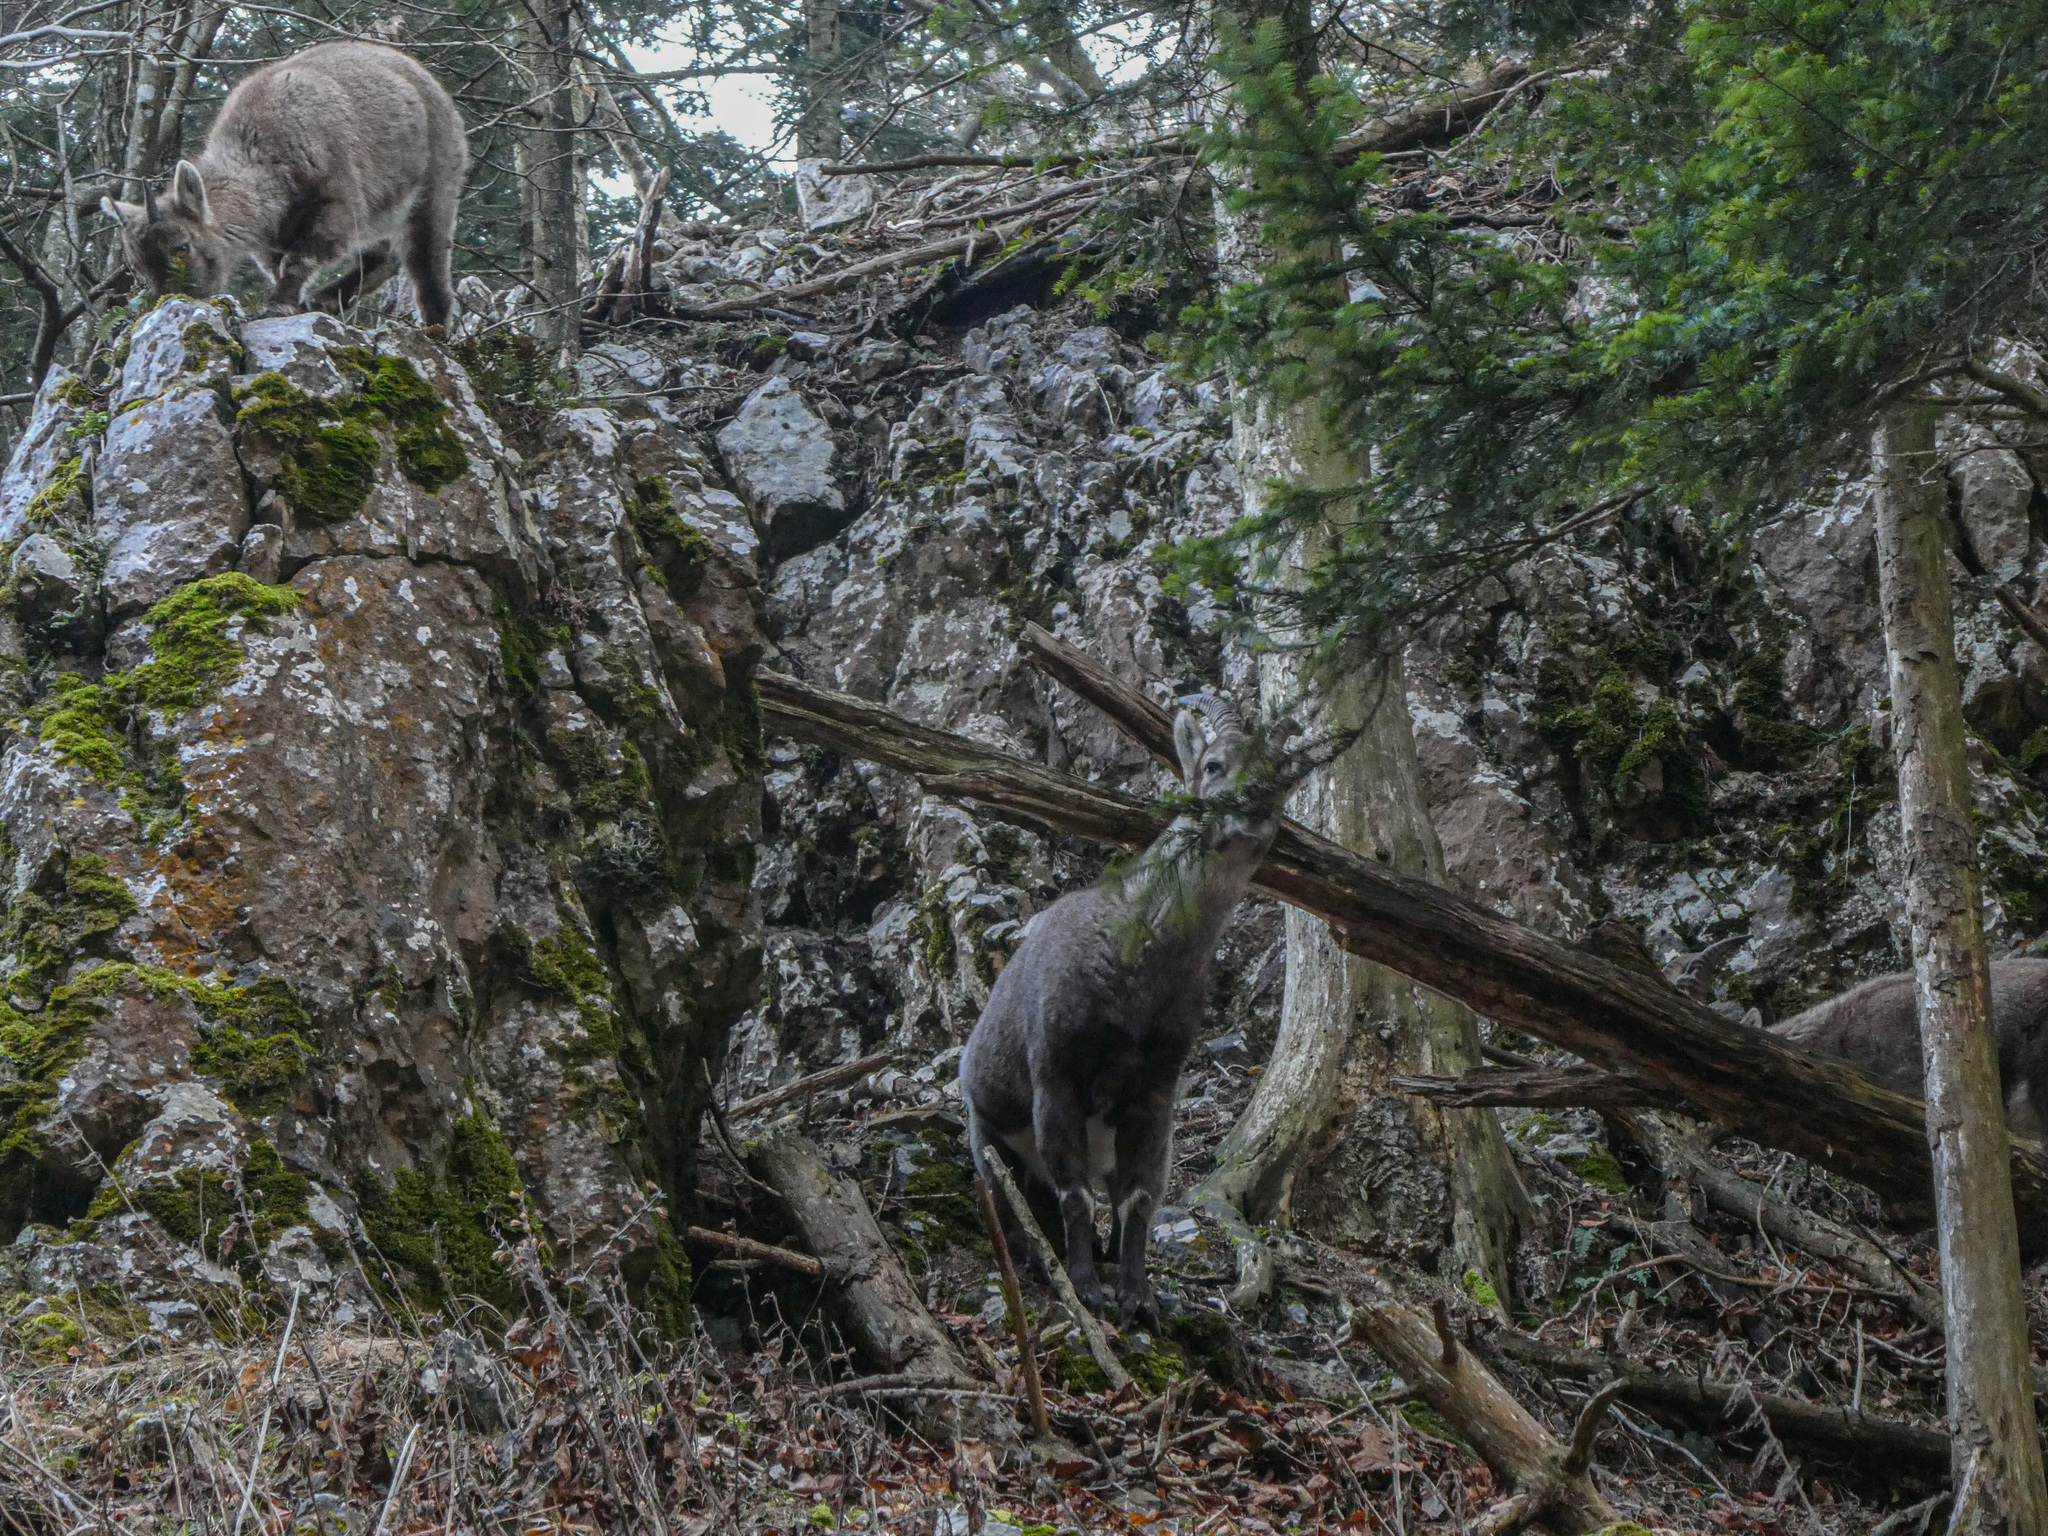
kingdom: Animalia
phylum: Chordata
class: Mammalia
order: Artiodactyla
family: Bovidae
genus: Capra
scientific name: Capra ibex
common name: Alpine ibex
